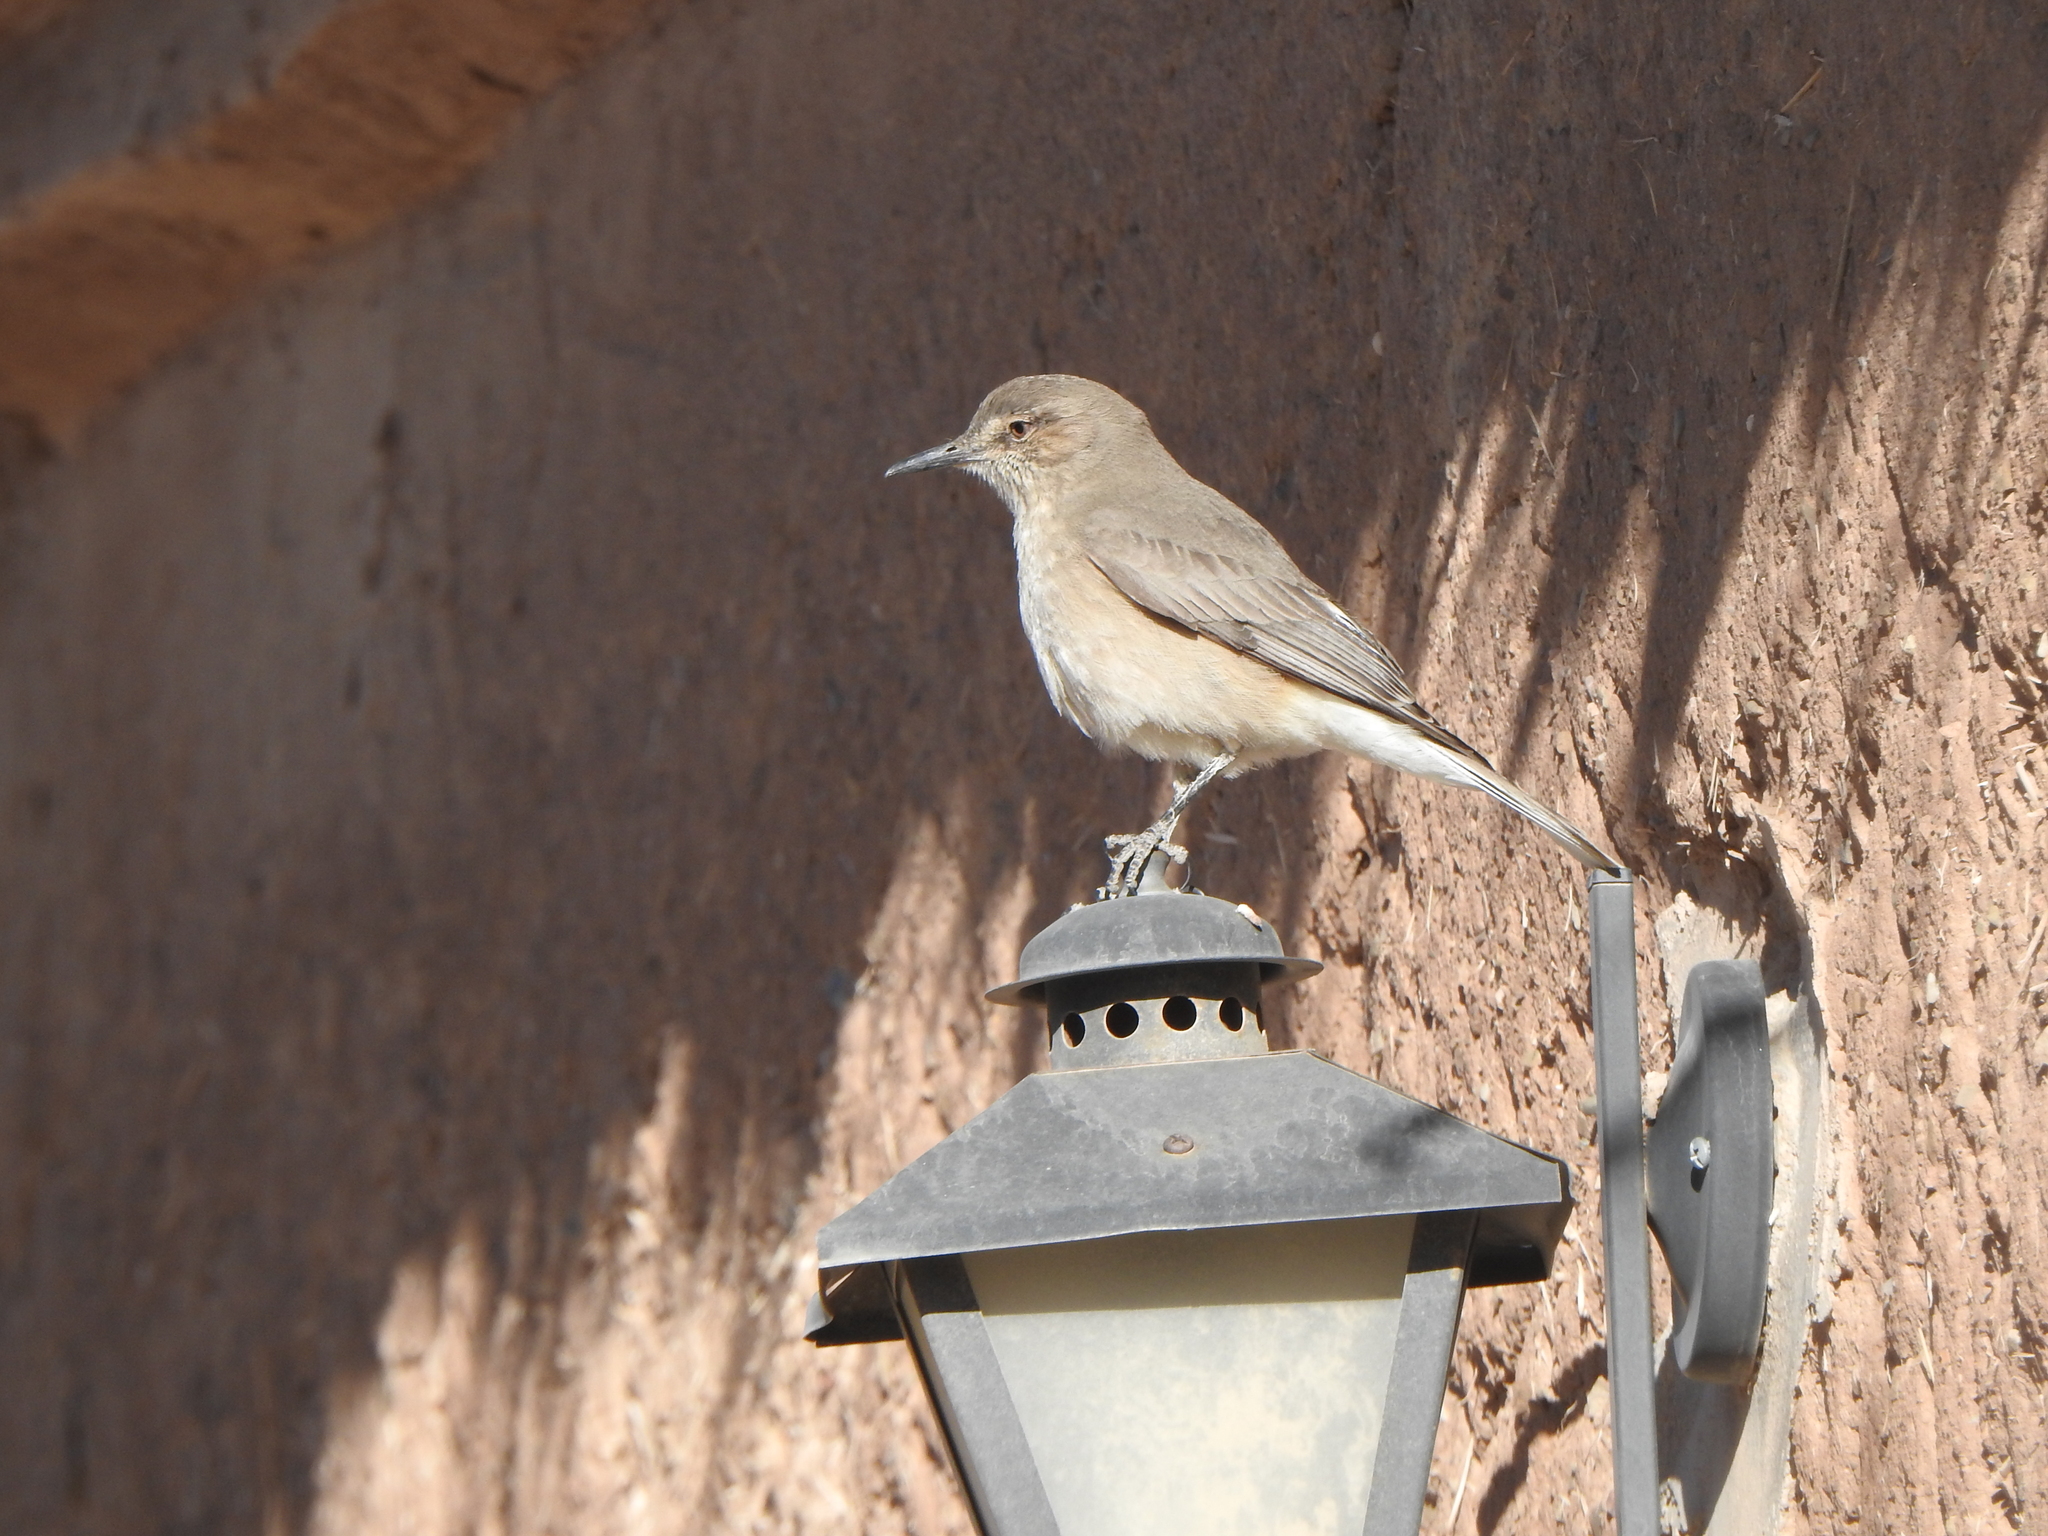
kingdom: Animalia
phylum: Chordata
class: Aves
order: Passeriformes
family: Tyrannidae
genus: Agriornis
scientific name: Agriornis montanus
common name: Black-billed shrike-tyrant
